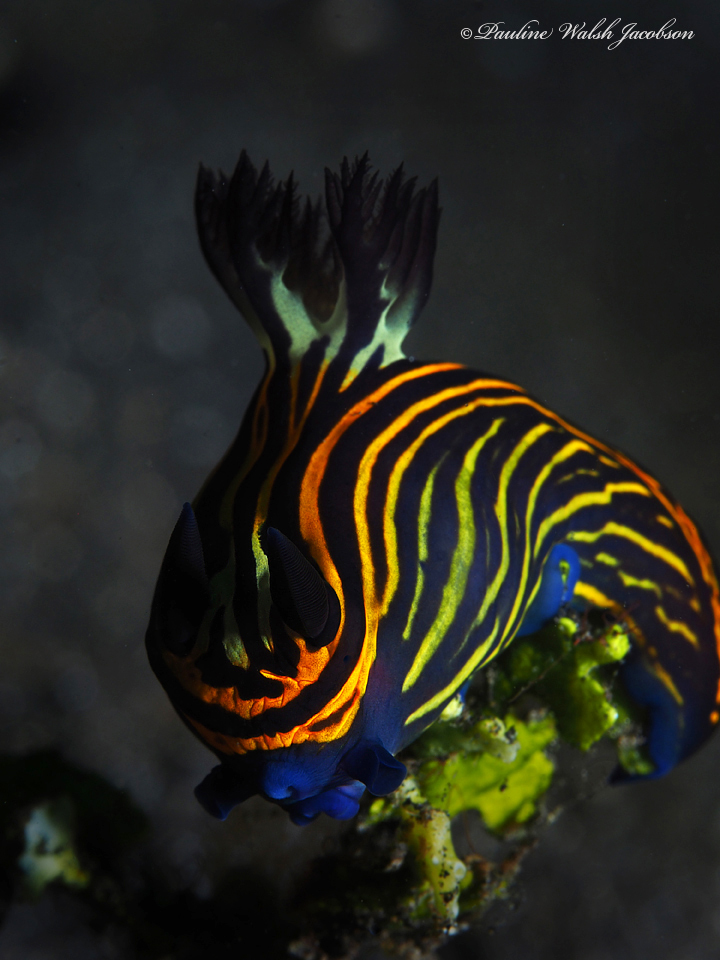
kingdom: Animalia
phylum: Mollusca
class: Gastropoda
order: Nudibranchia
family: Polyceridae
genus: Tyrannodoris
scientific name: Tyrannodoris luteolineata
